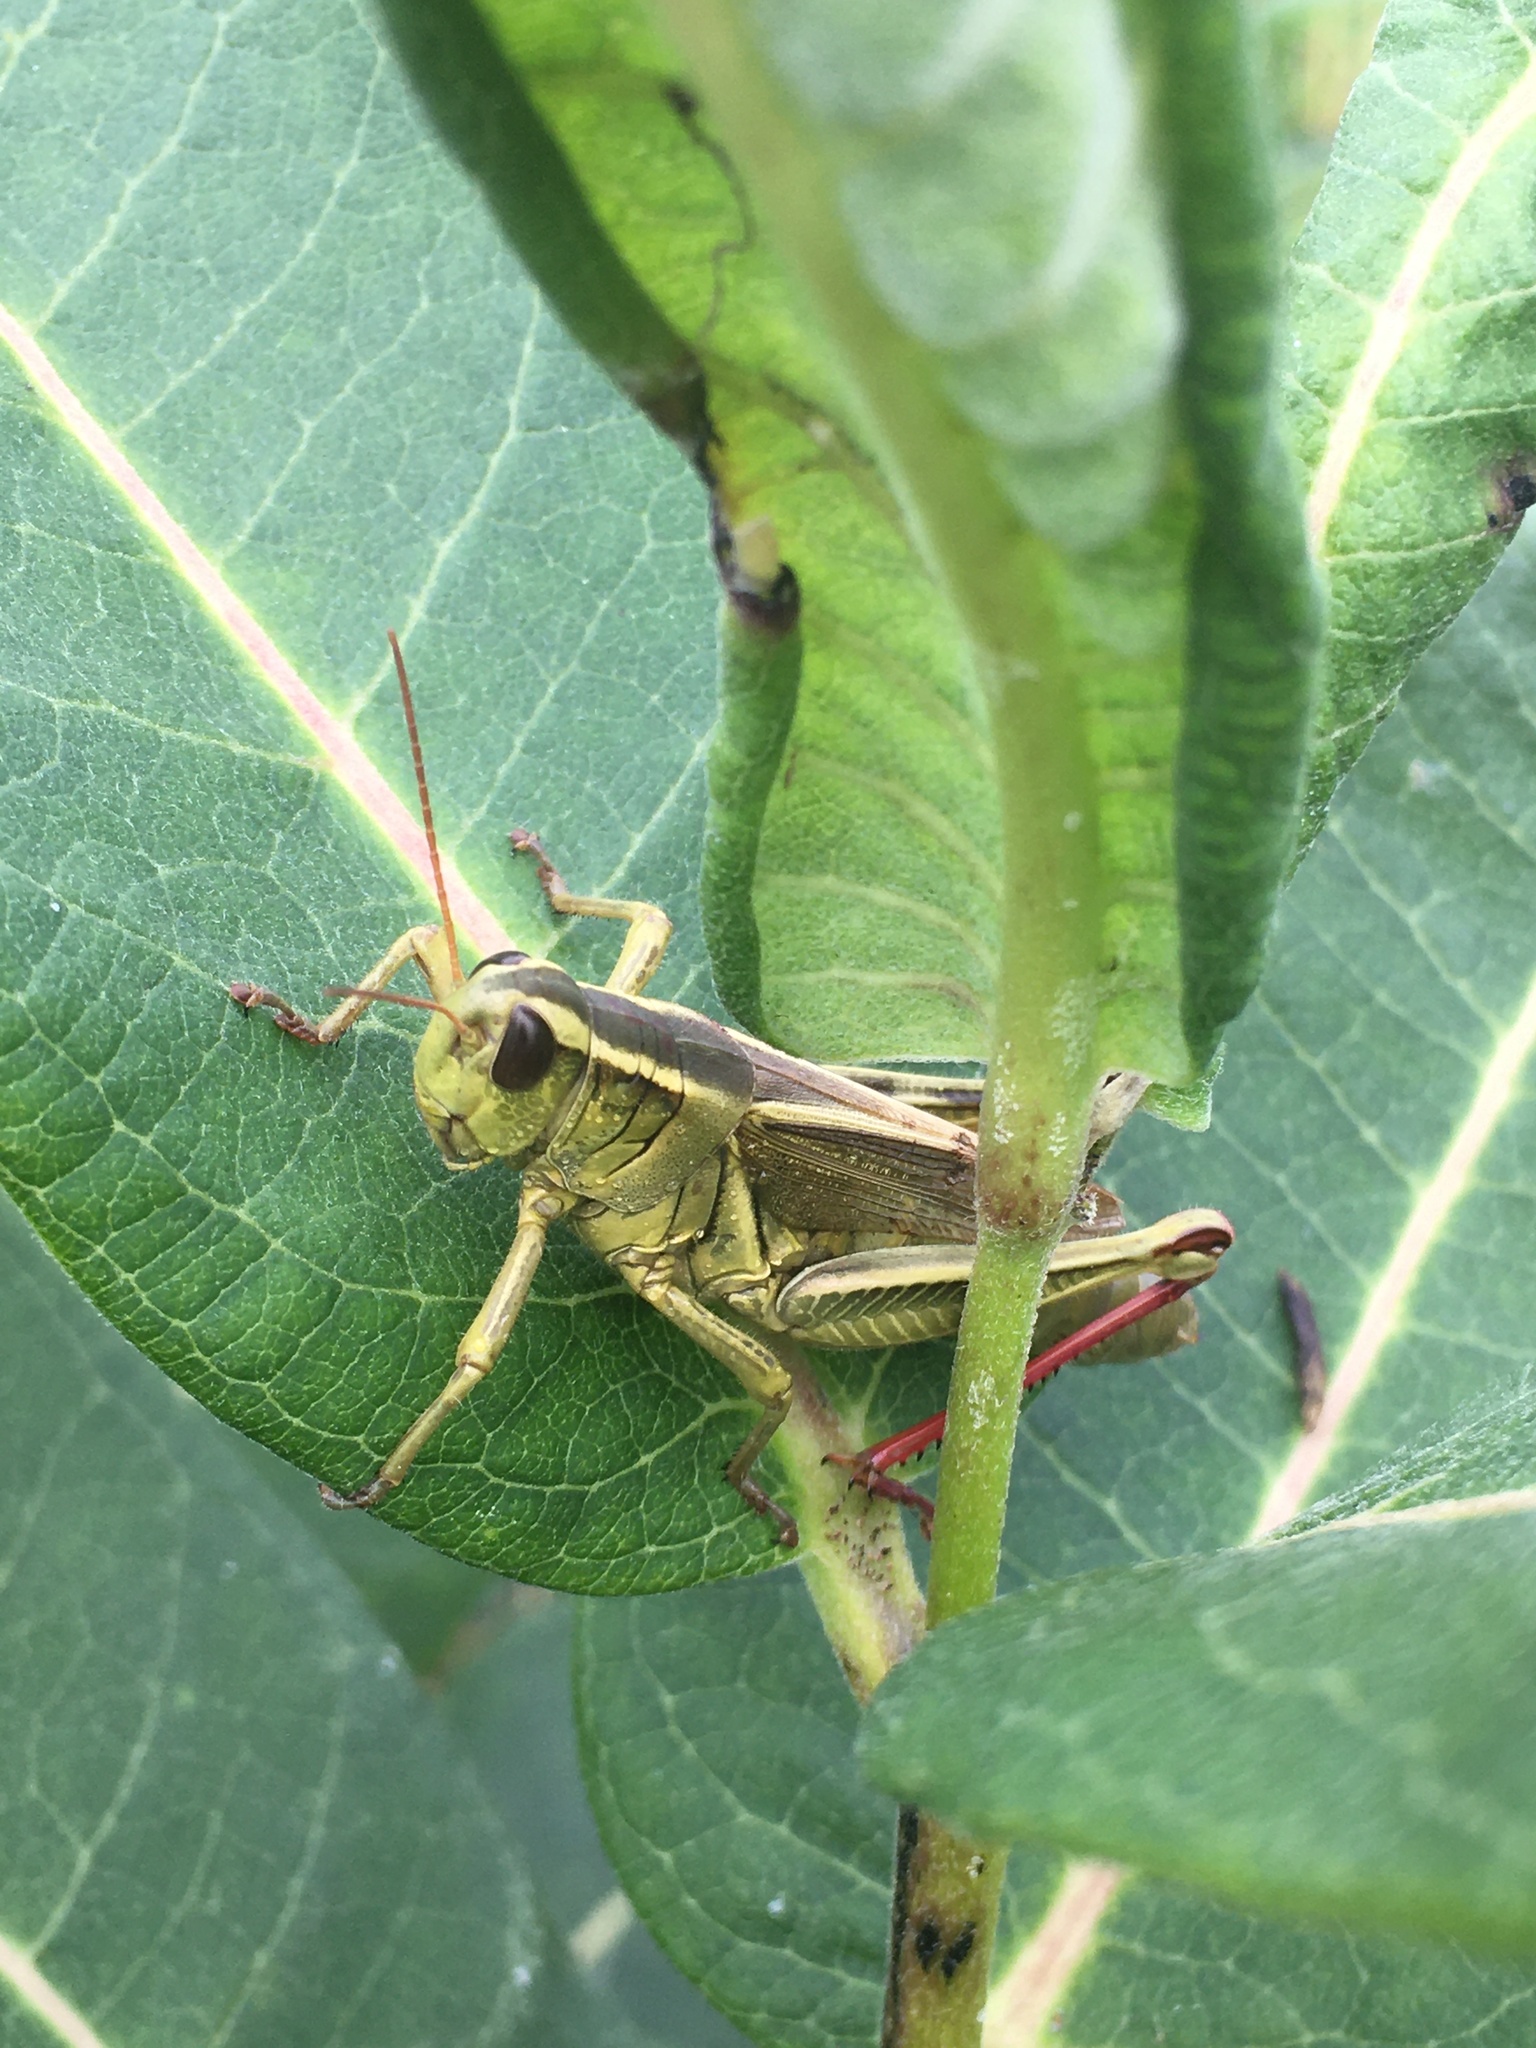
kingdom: Animalia
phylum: Arthropoda
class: Insecta
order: Orthoptera
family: Acrididae
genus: Melanoplus
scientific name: Melanoplus bivittatus
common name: Two-striped grasshopper
